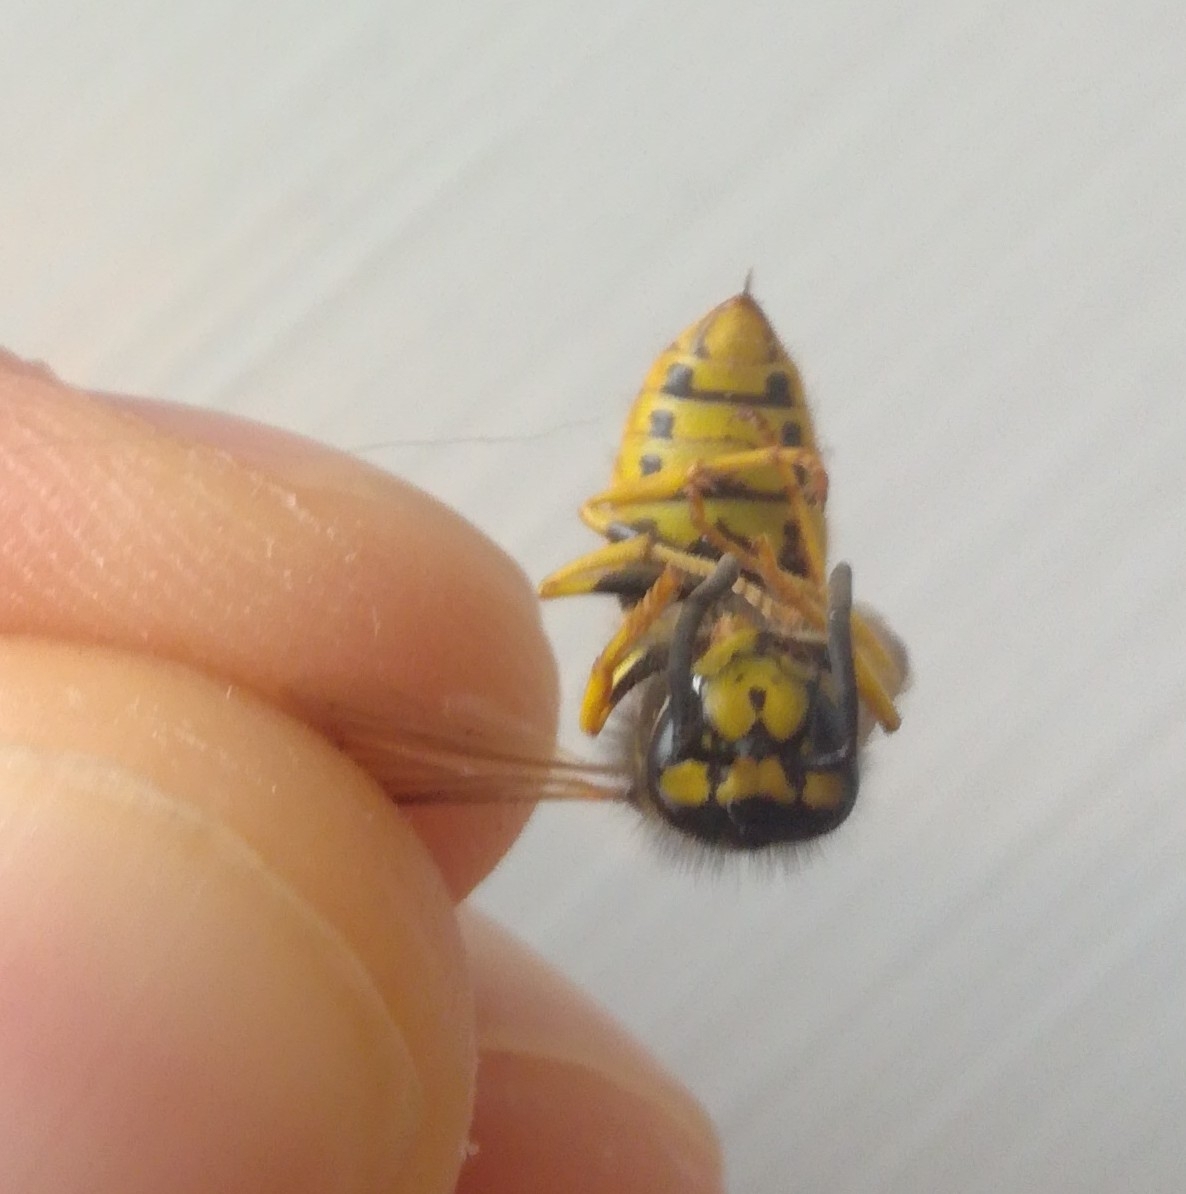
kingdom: Animalia
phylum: Arthropoda
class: Insecta
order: Hymenoptera
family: Vespidae
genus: Vespula
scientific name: Vespula germanica
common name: German wasp
